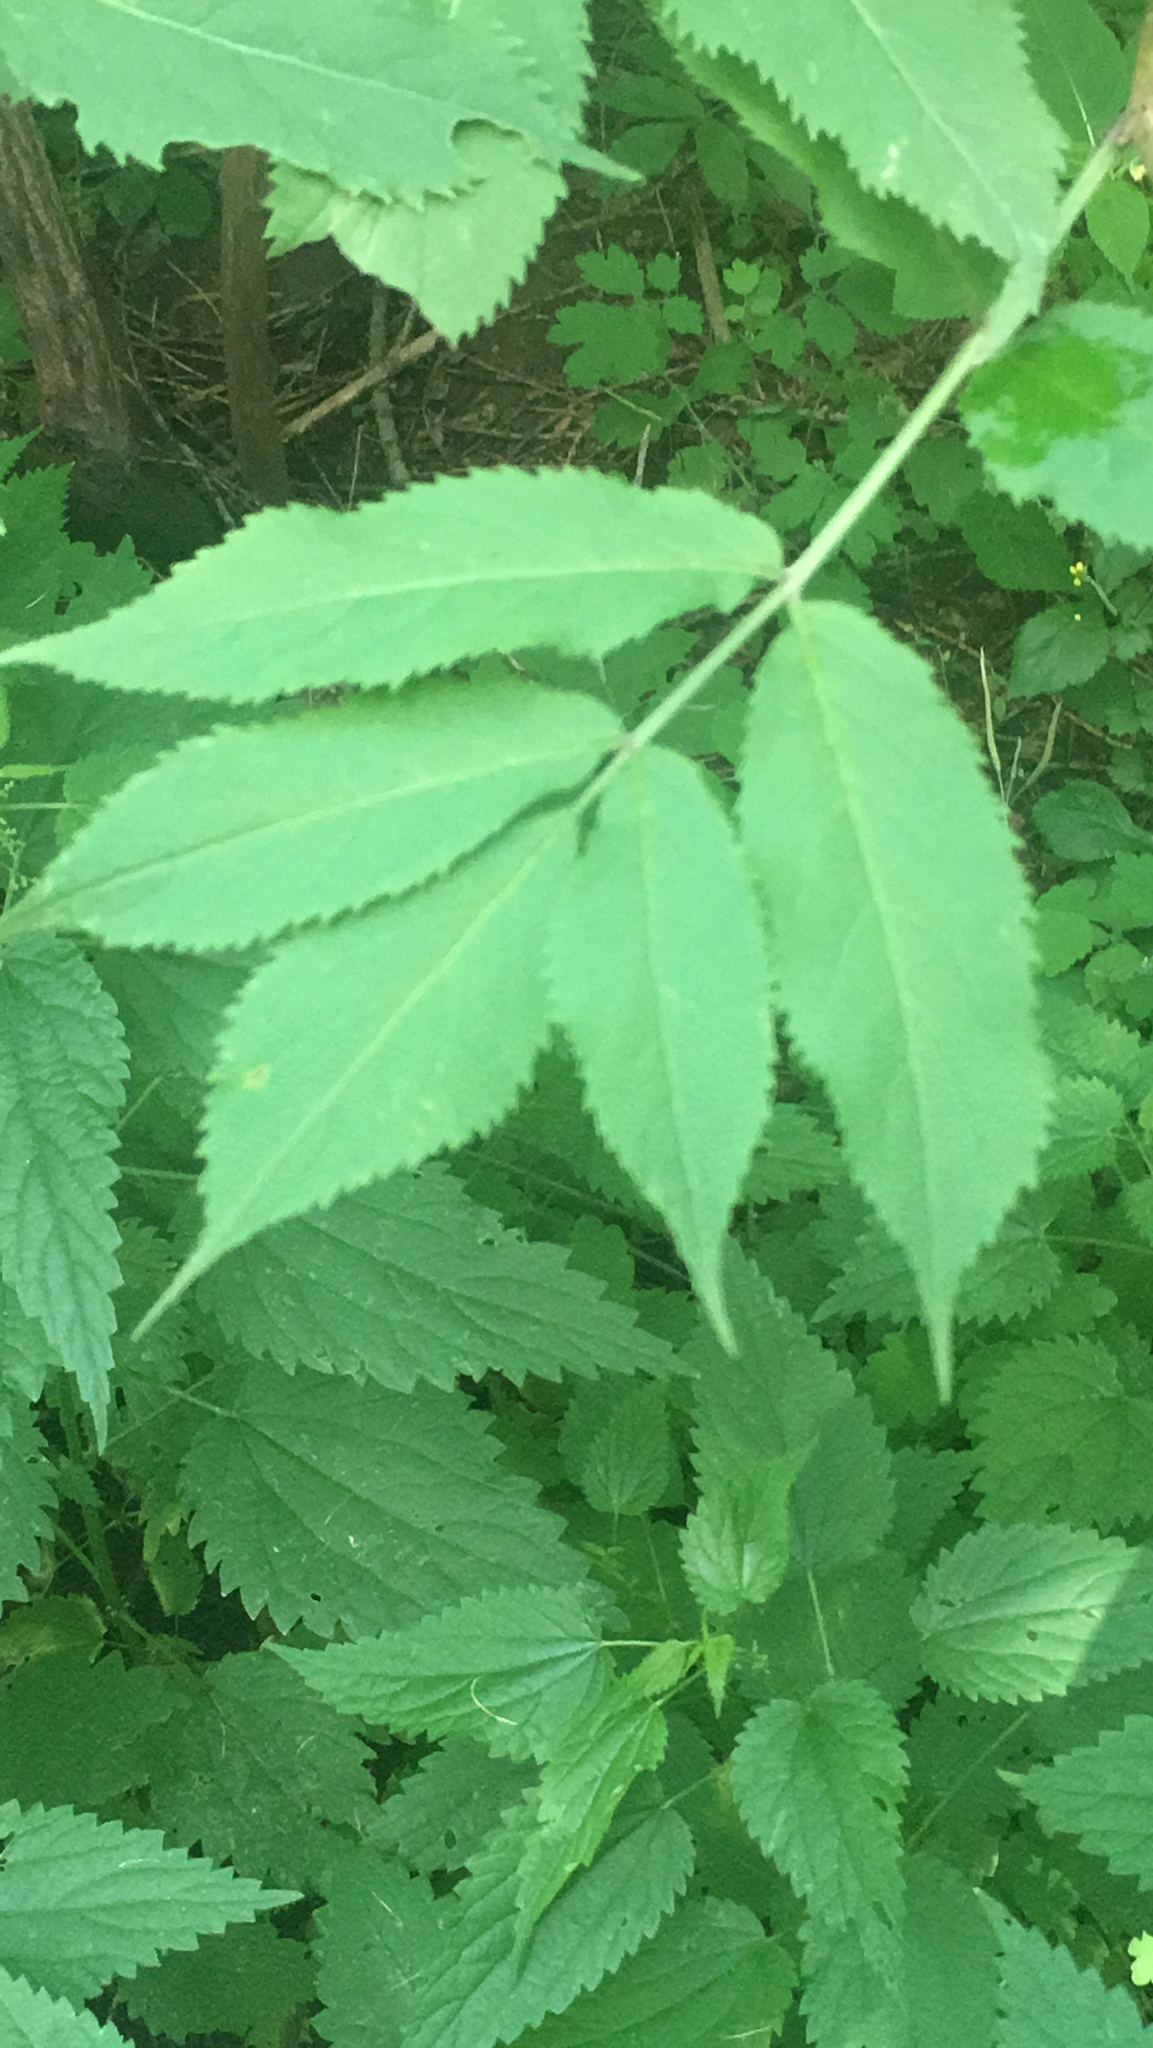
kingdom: Plantae
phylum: Tracheophyta
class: Magnoliopsida
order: Dipsacales
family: Viburnaceae
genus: Sambucus
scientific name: Sambucus racemosa
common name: Red-berried elder
